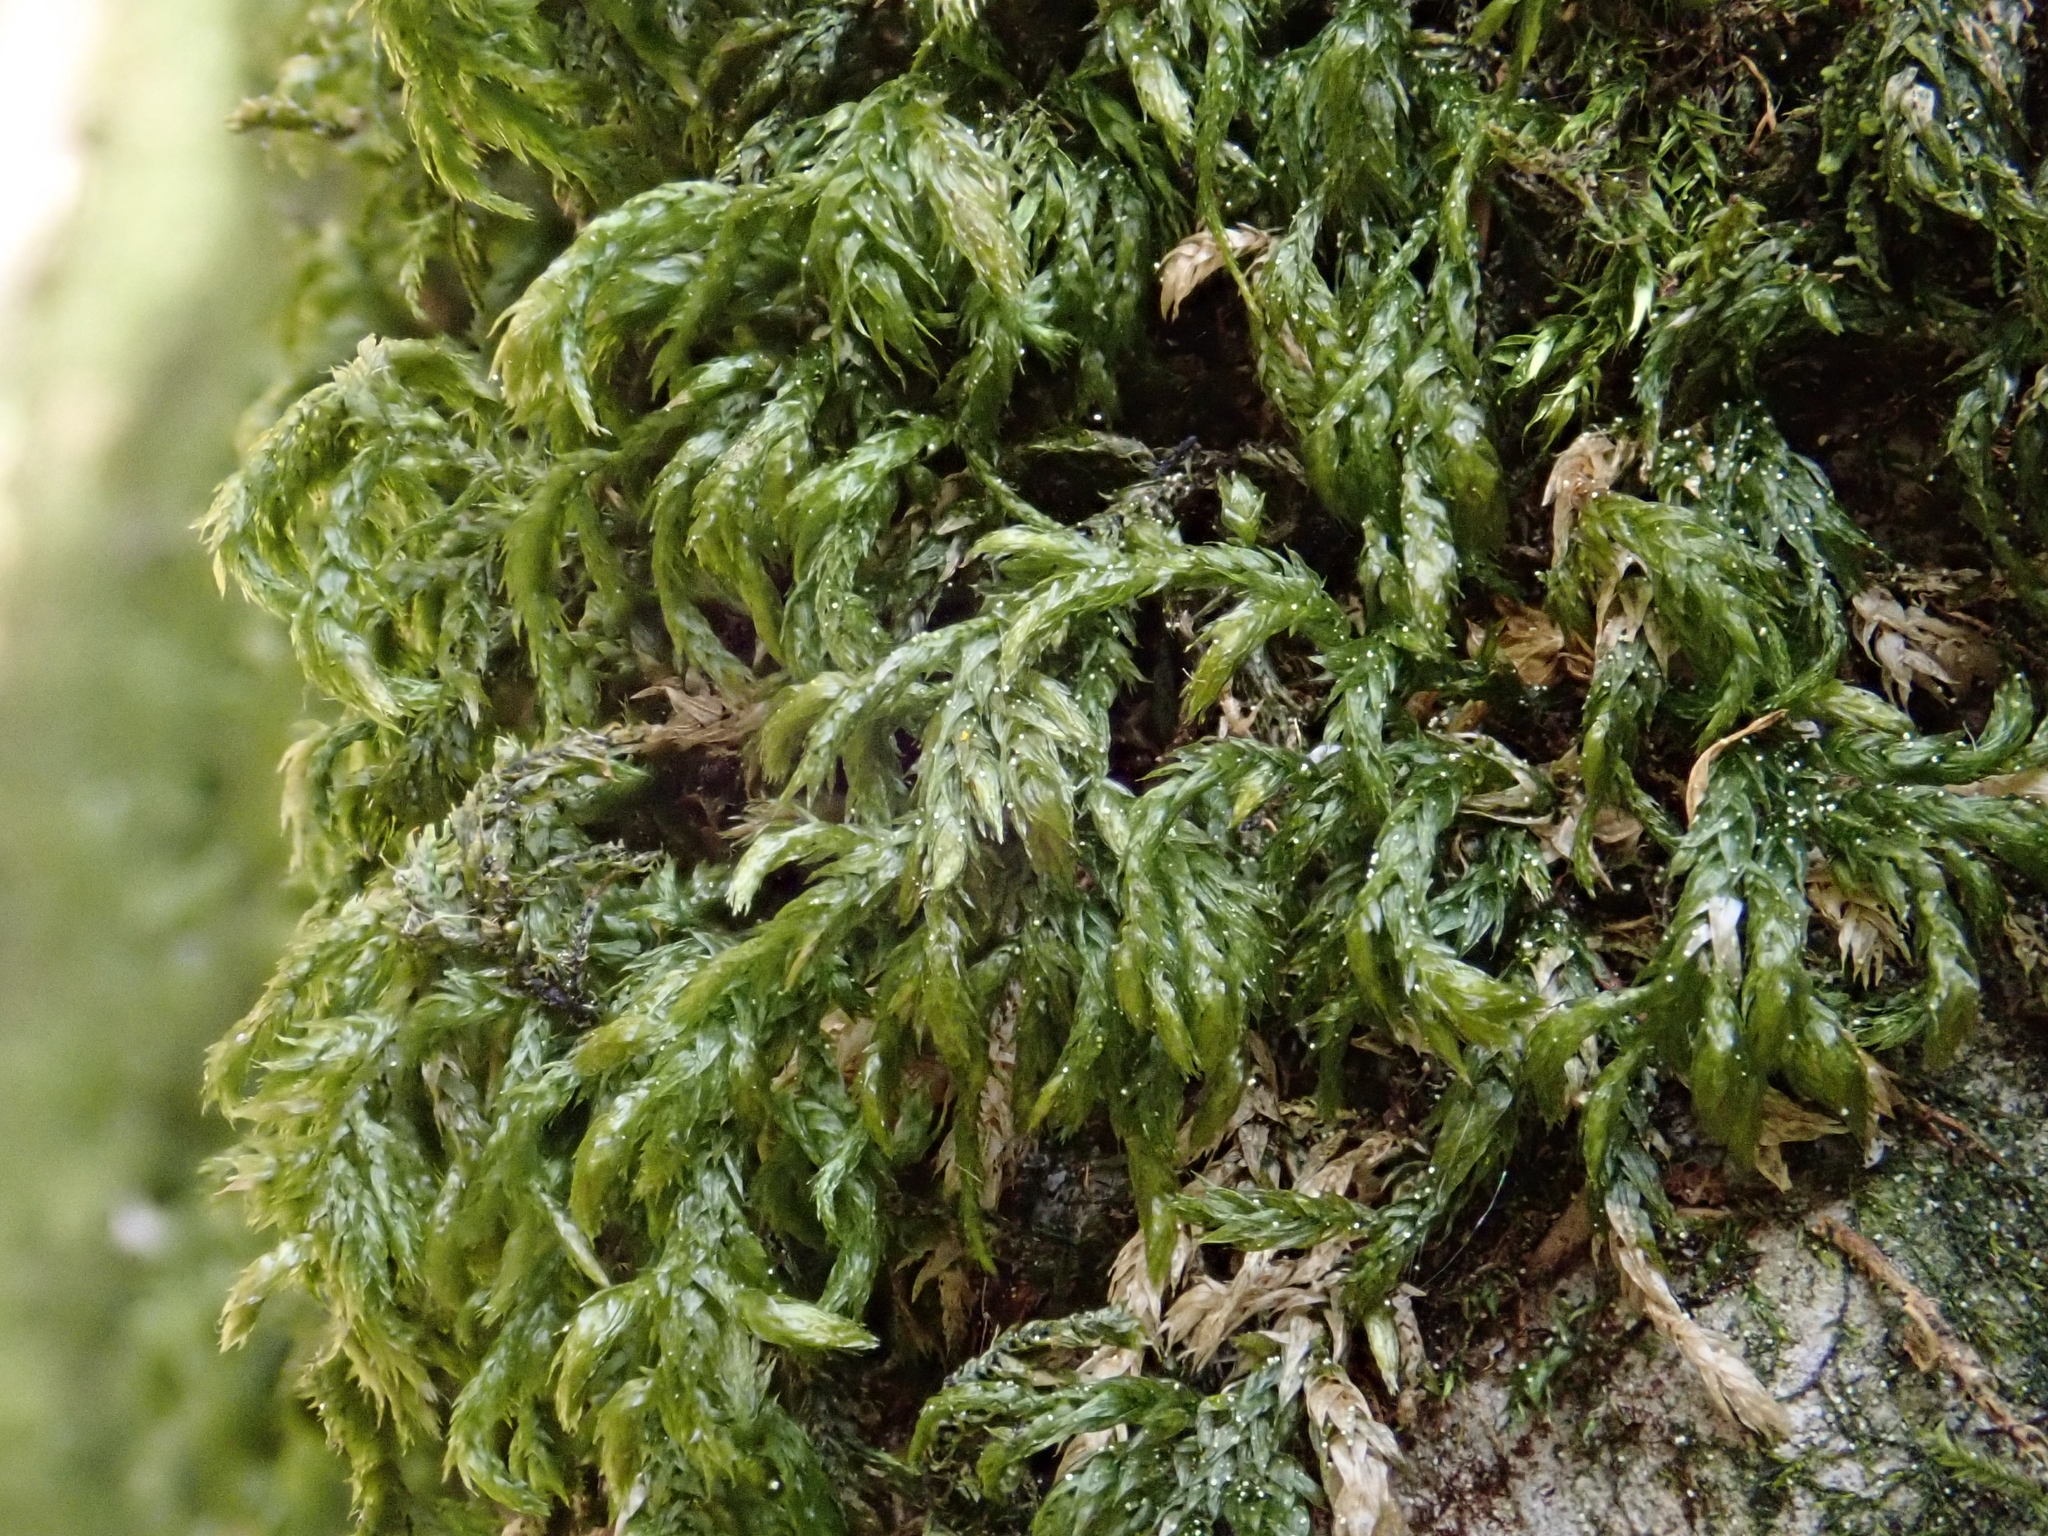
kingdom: Plantae
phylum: Bryophyta
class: Bryopsida
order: Hypnales
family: Brachytheciaceae
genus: Plasteurhynchium
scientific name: Plasteurhynchium striatulum
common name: Lesser striated feather-moss
